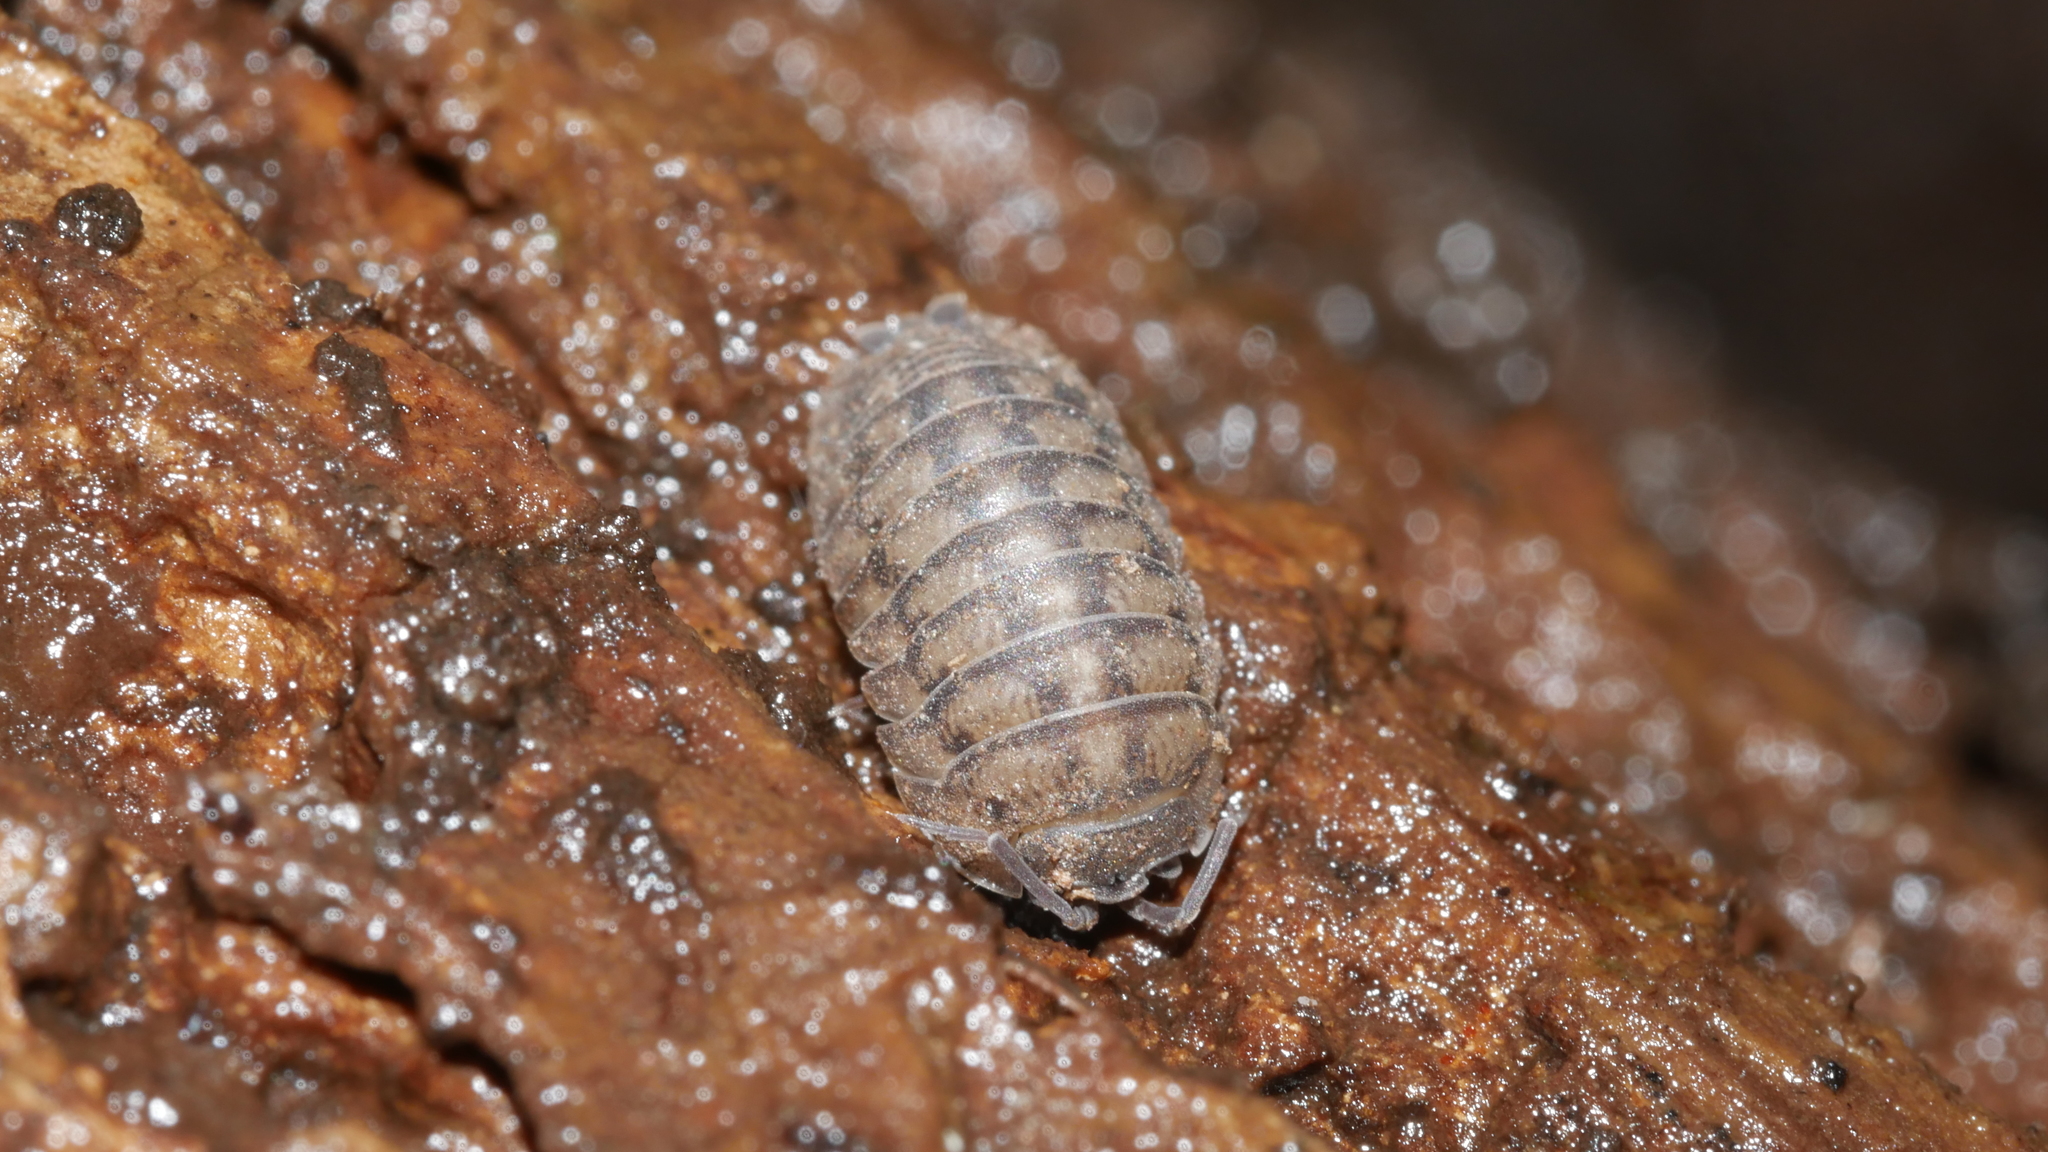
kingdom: Animalia
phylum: Arthropoda
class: Malacostraca
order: Isopoda
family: Armadillidiidae
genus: Armadillidium
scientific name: Armadillidium nasatum
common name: Isopod
